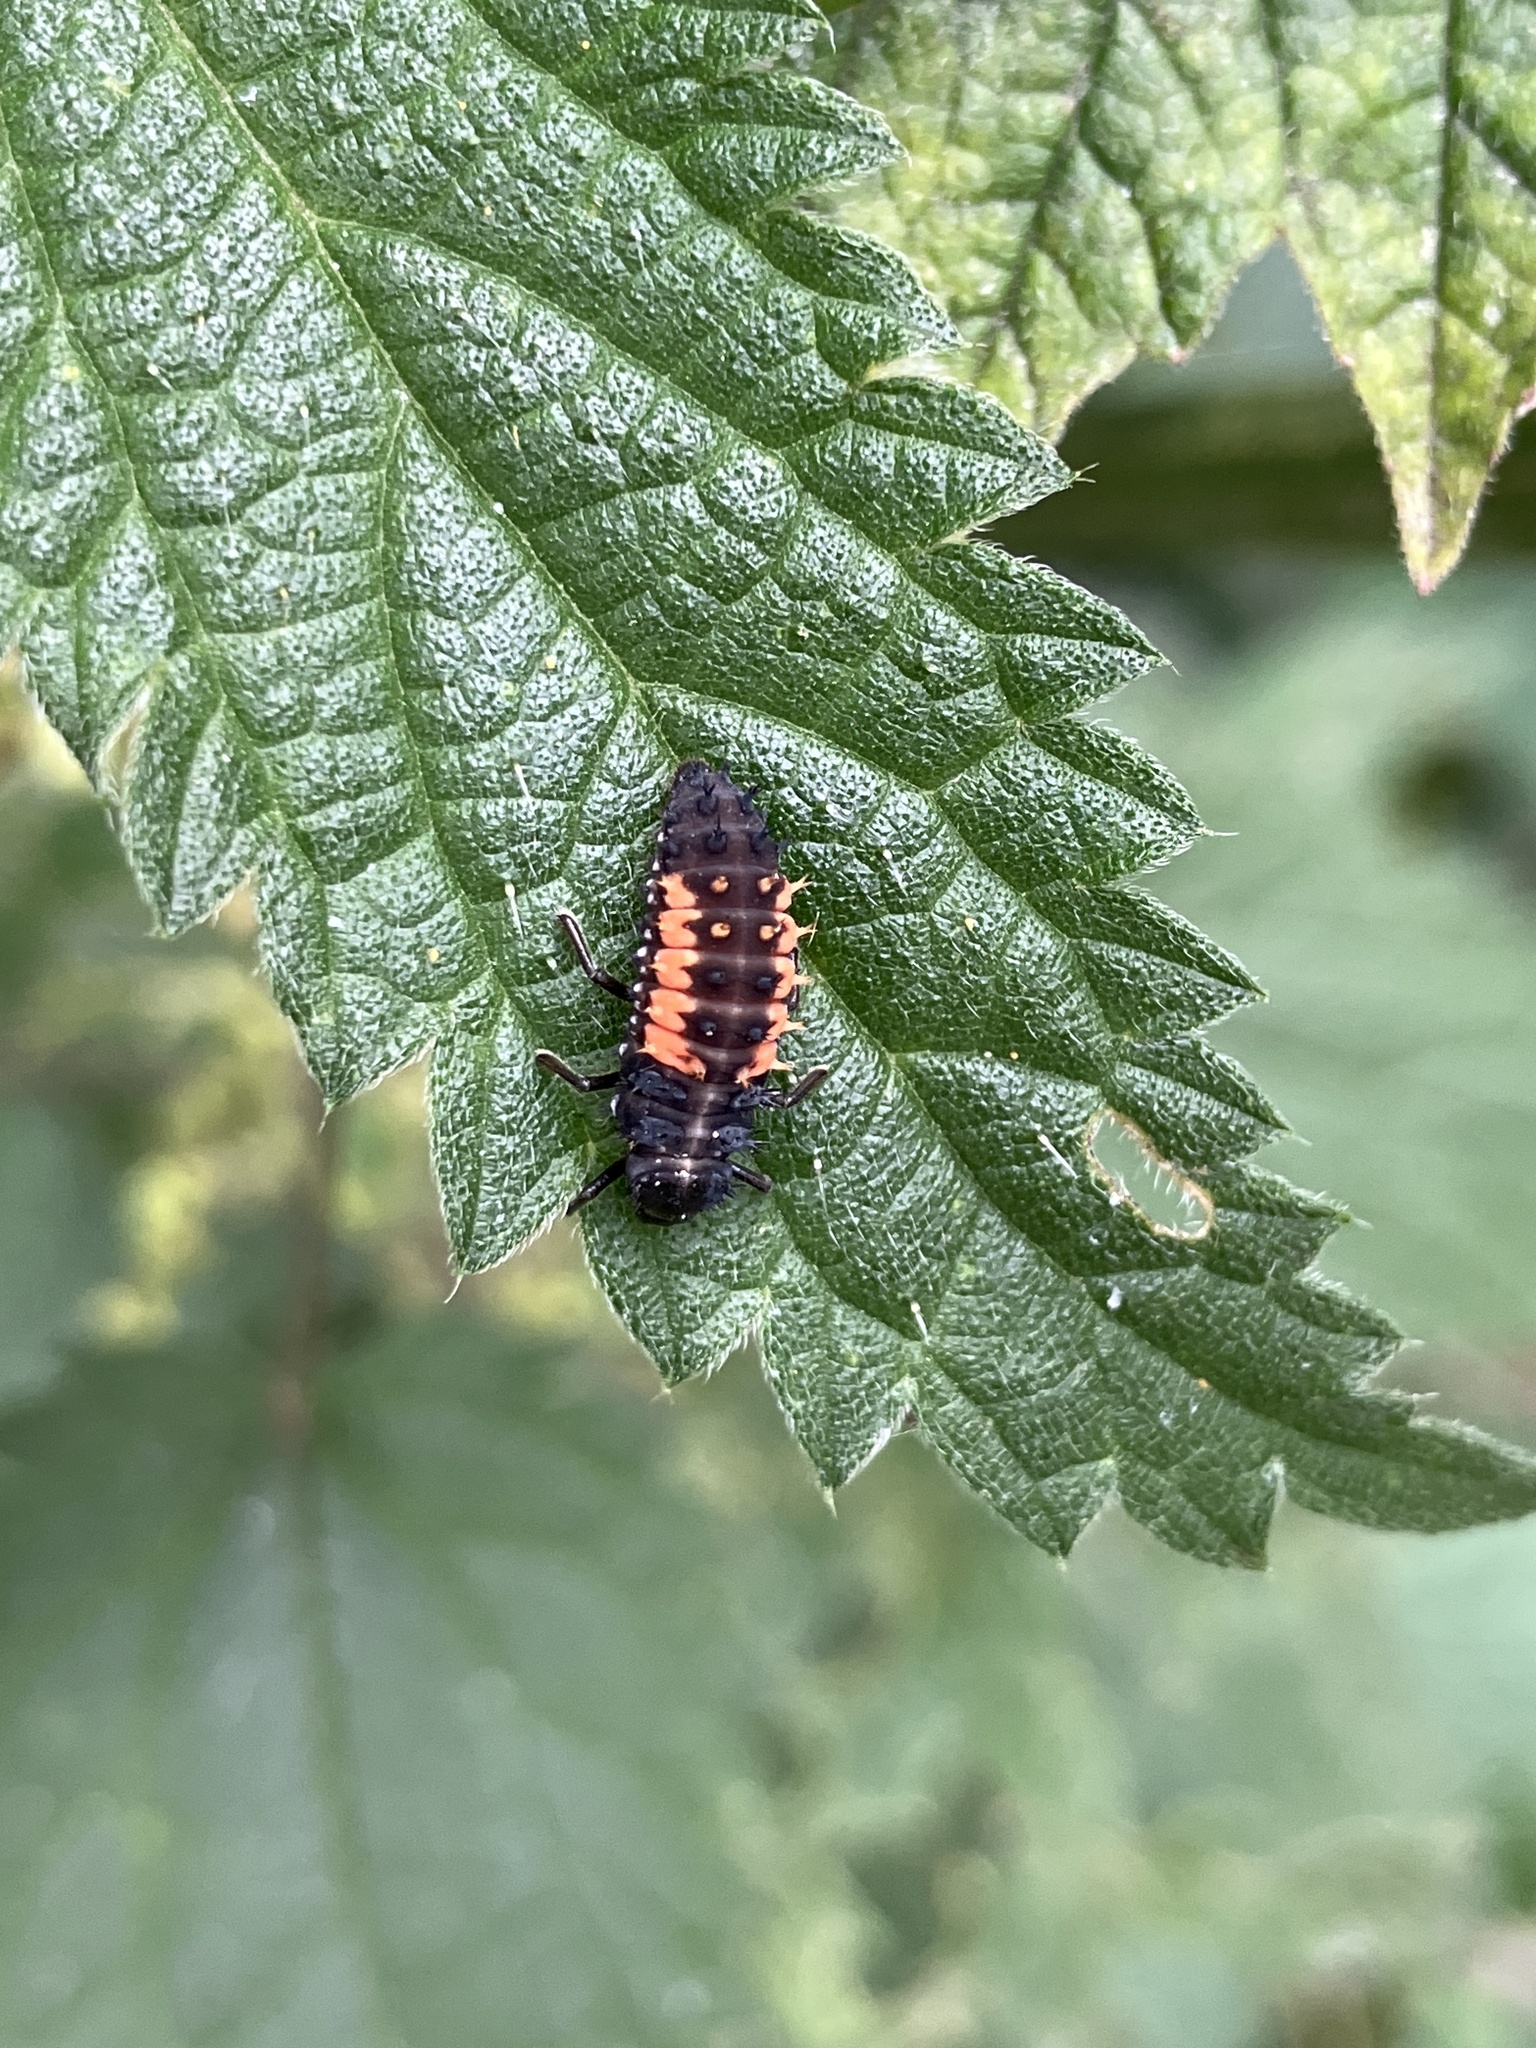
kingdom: Animalia
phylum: Arthropoda
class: Insecta
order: Coleoptera
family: Coccinellidae
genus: Harmonia
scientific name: Harmonia axyridis
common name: Harlequin ladybird
